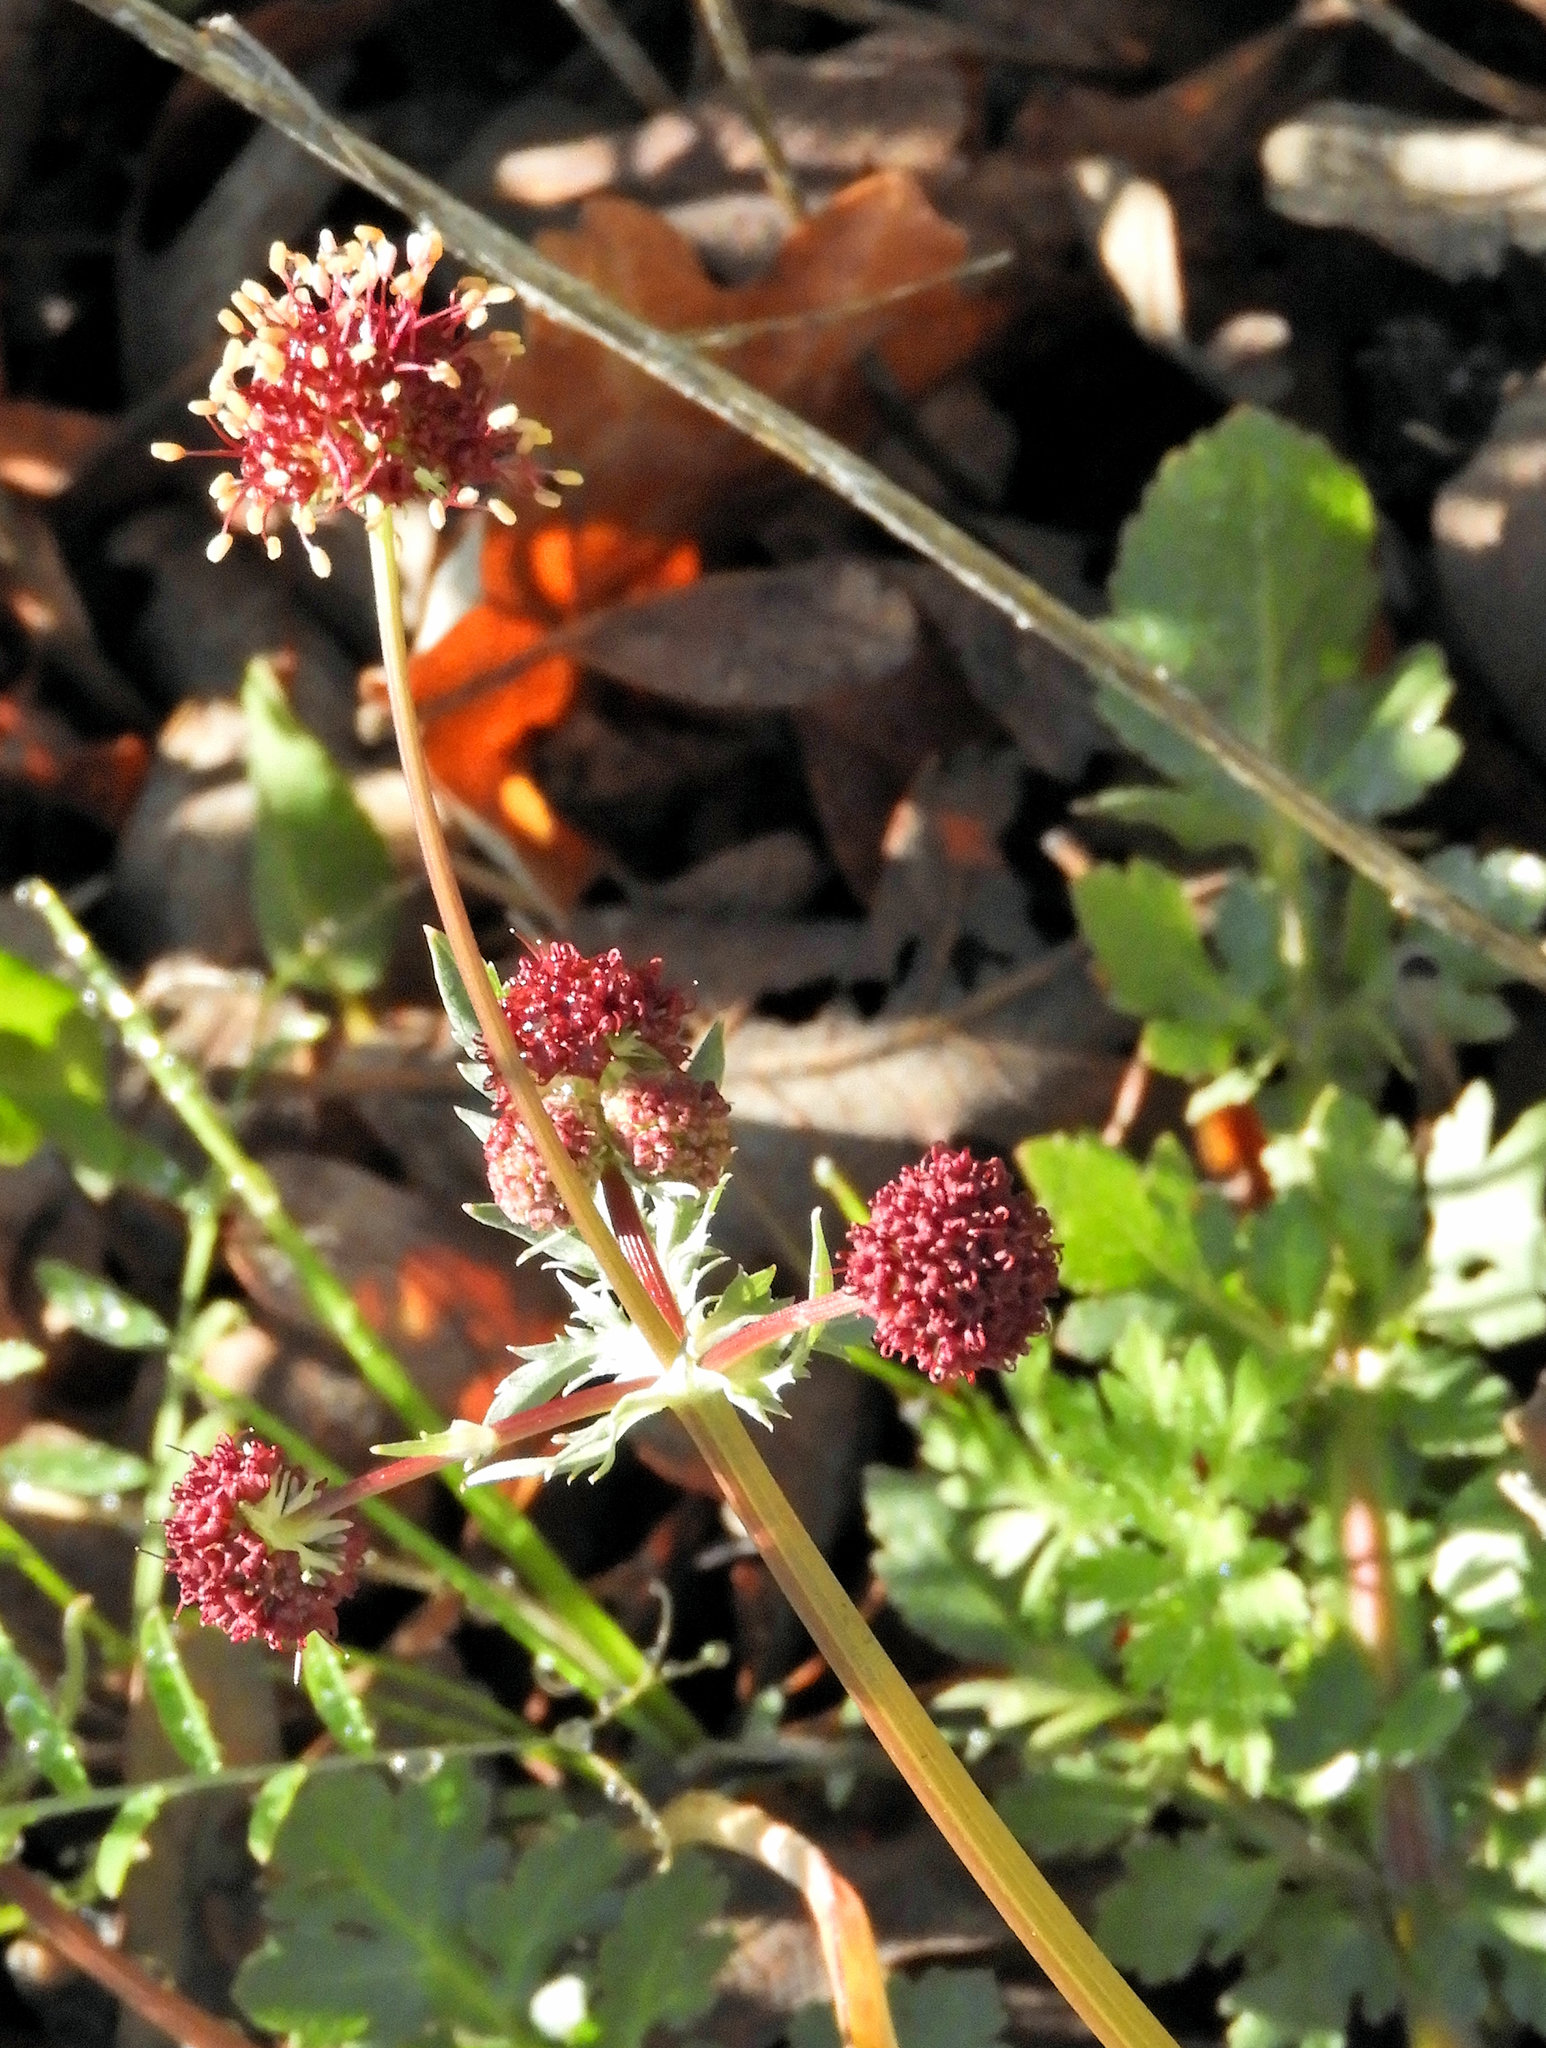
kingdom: Plantae
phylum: Tracheophyta
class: Magnoliopsida
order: Apiales
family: Apiaceae
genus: Sanicula
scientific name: Sanicula bipinnatifida
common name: Shoe-buttons
